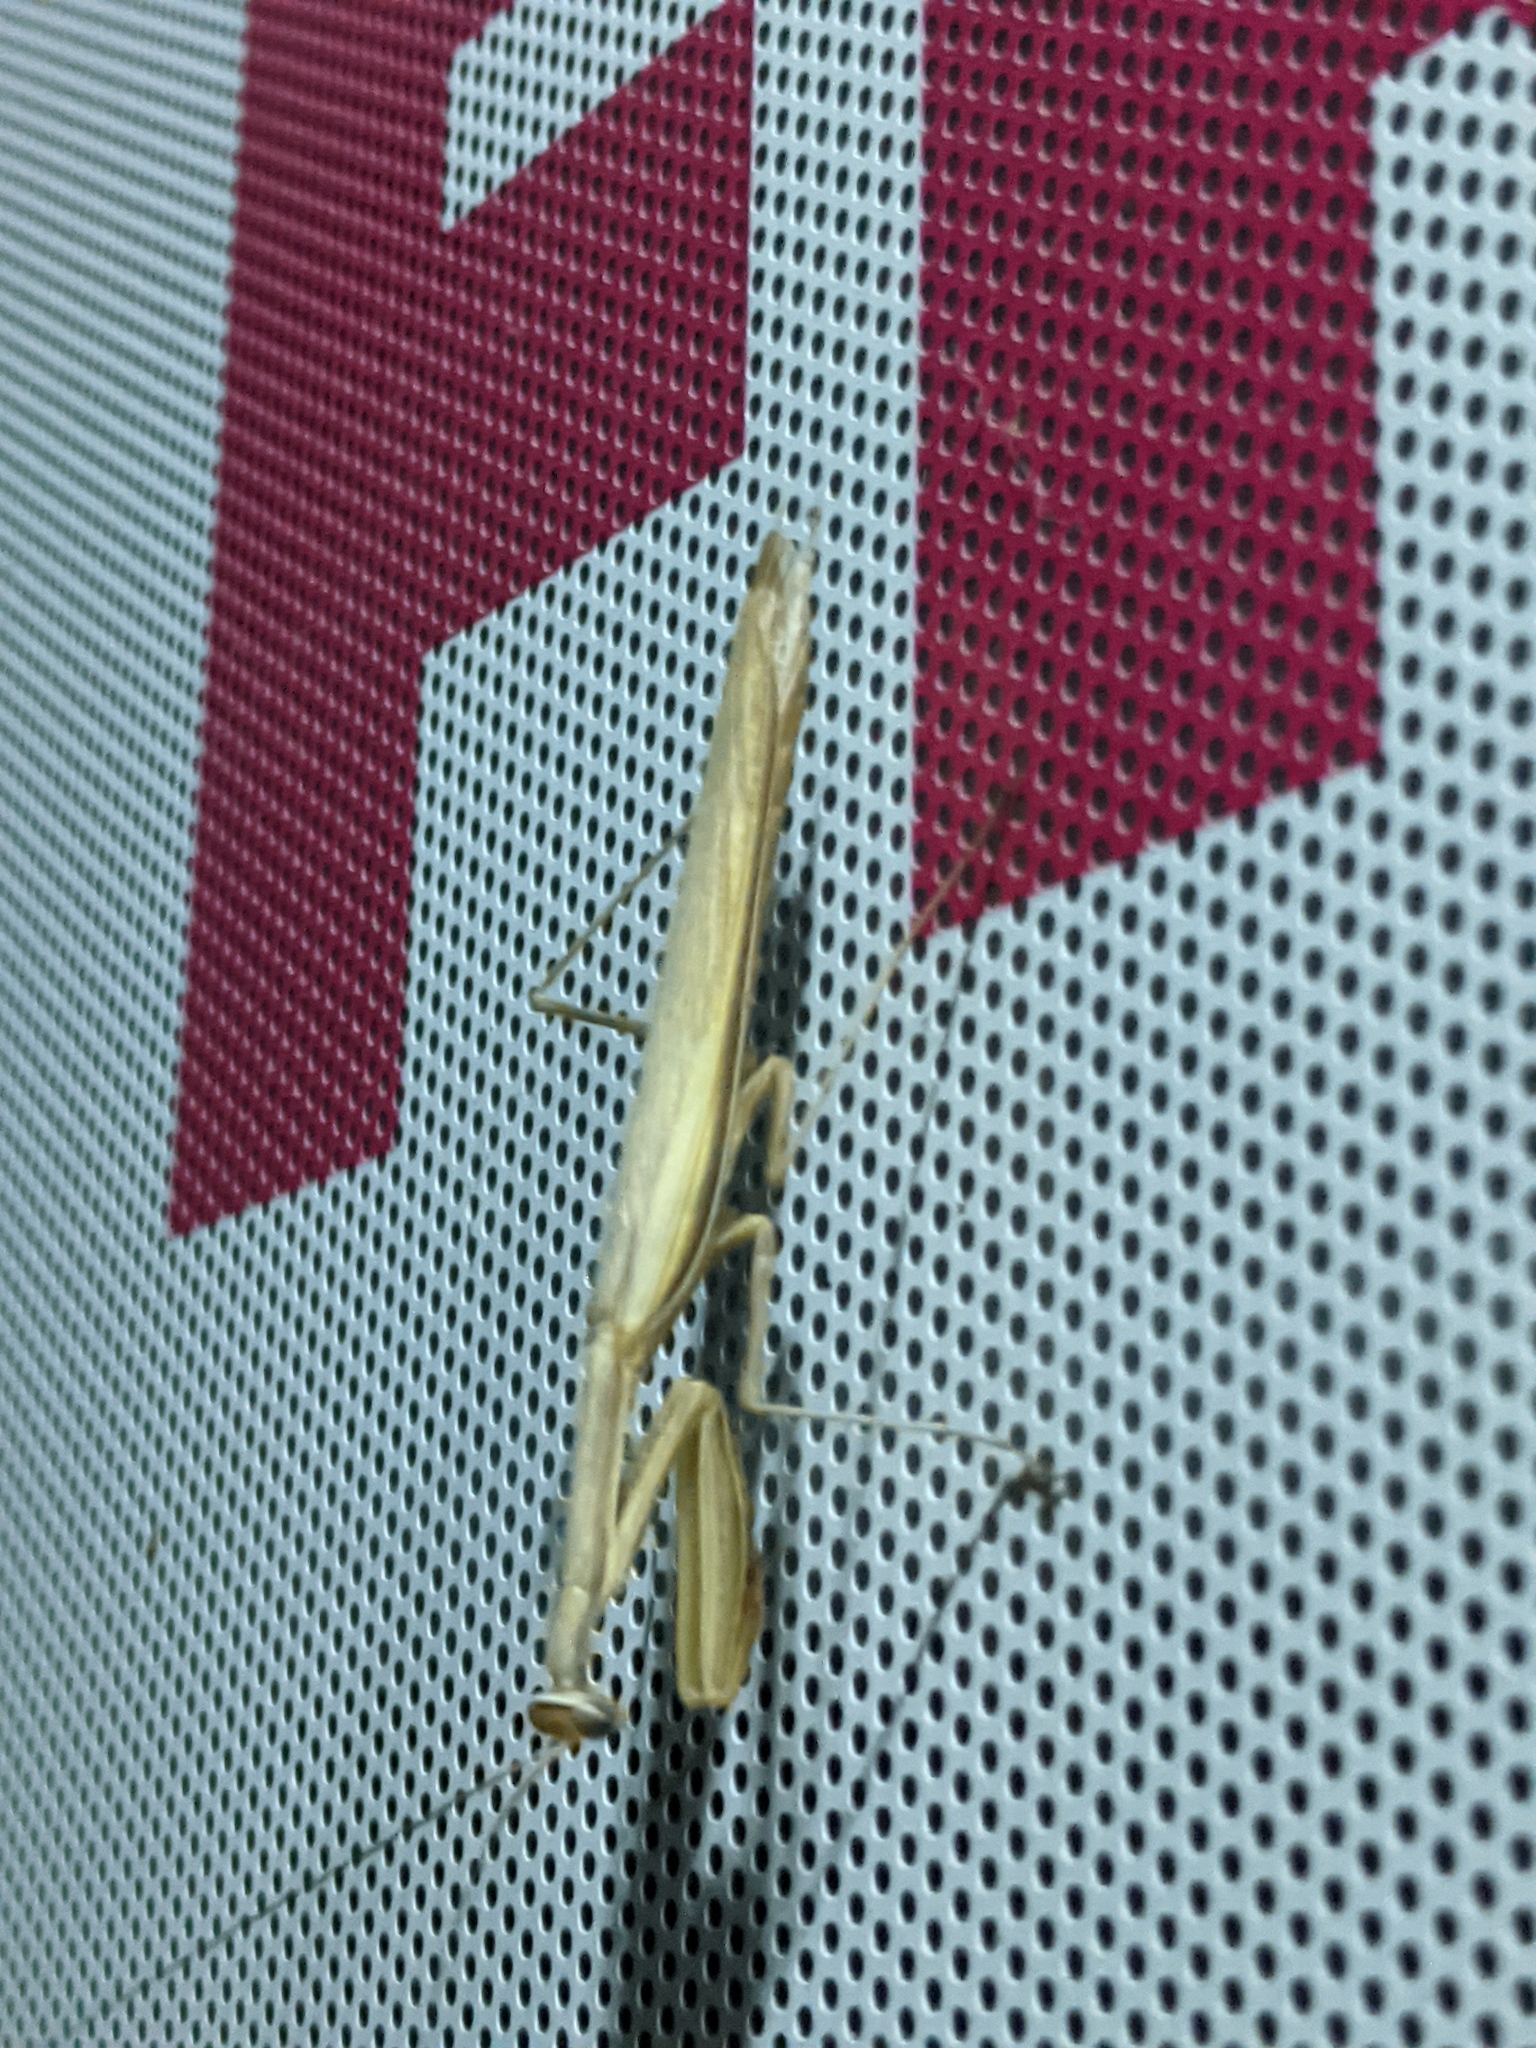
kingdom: Animalia
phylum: Arthropoda
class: Insecta
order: Mantodea
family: Mantidae
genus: Mantis
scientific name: Mantis religiosa
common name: Praying mantis
